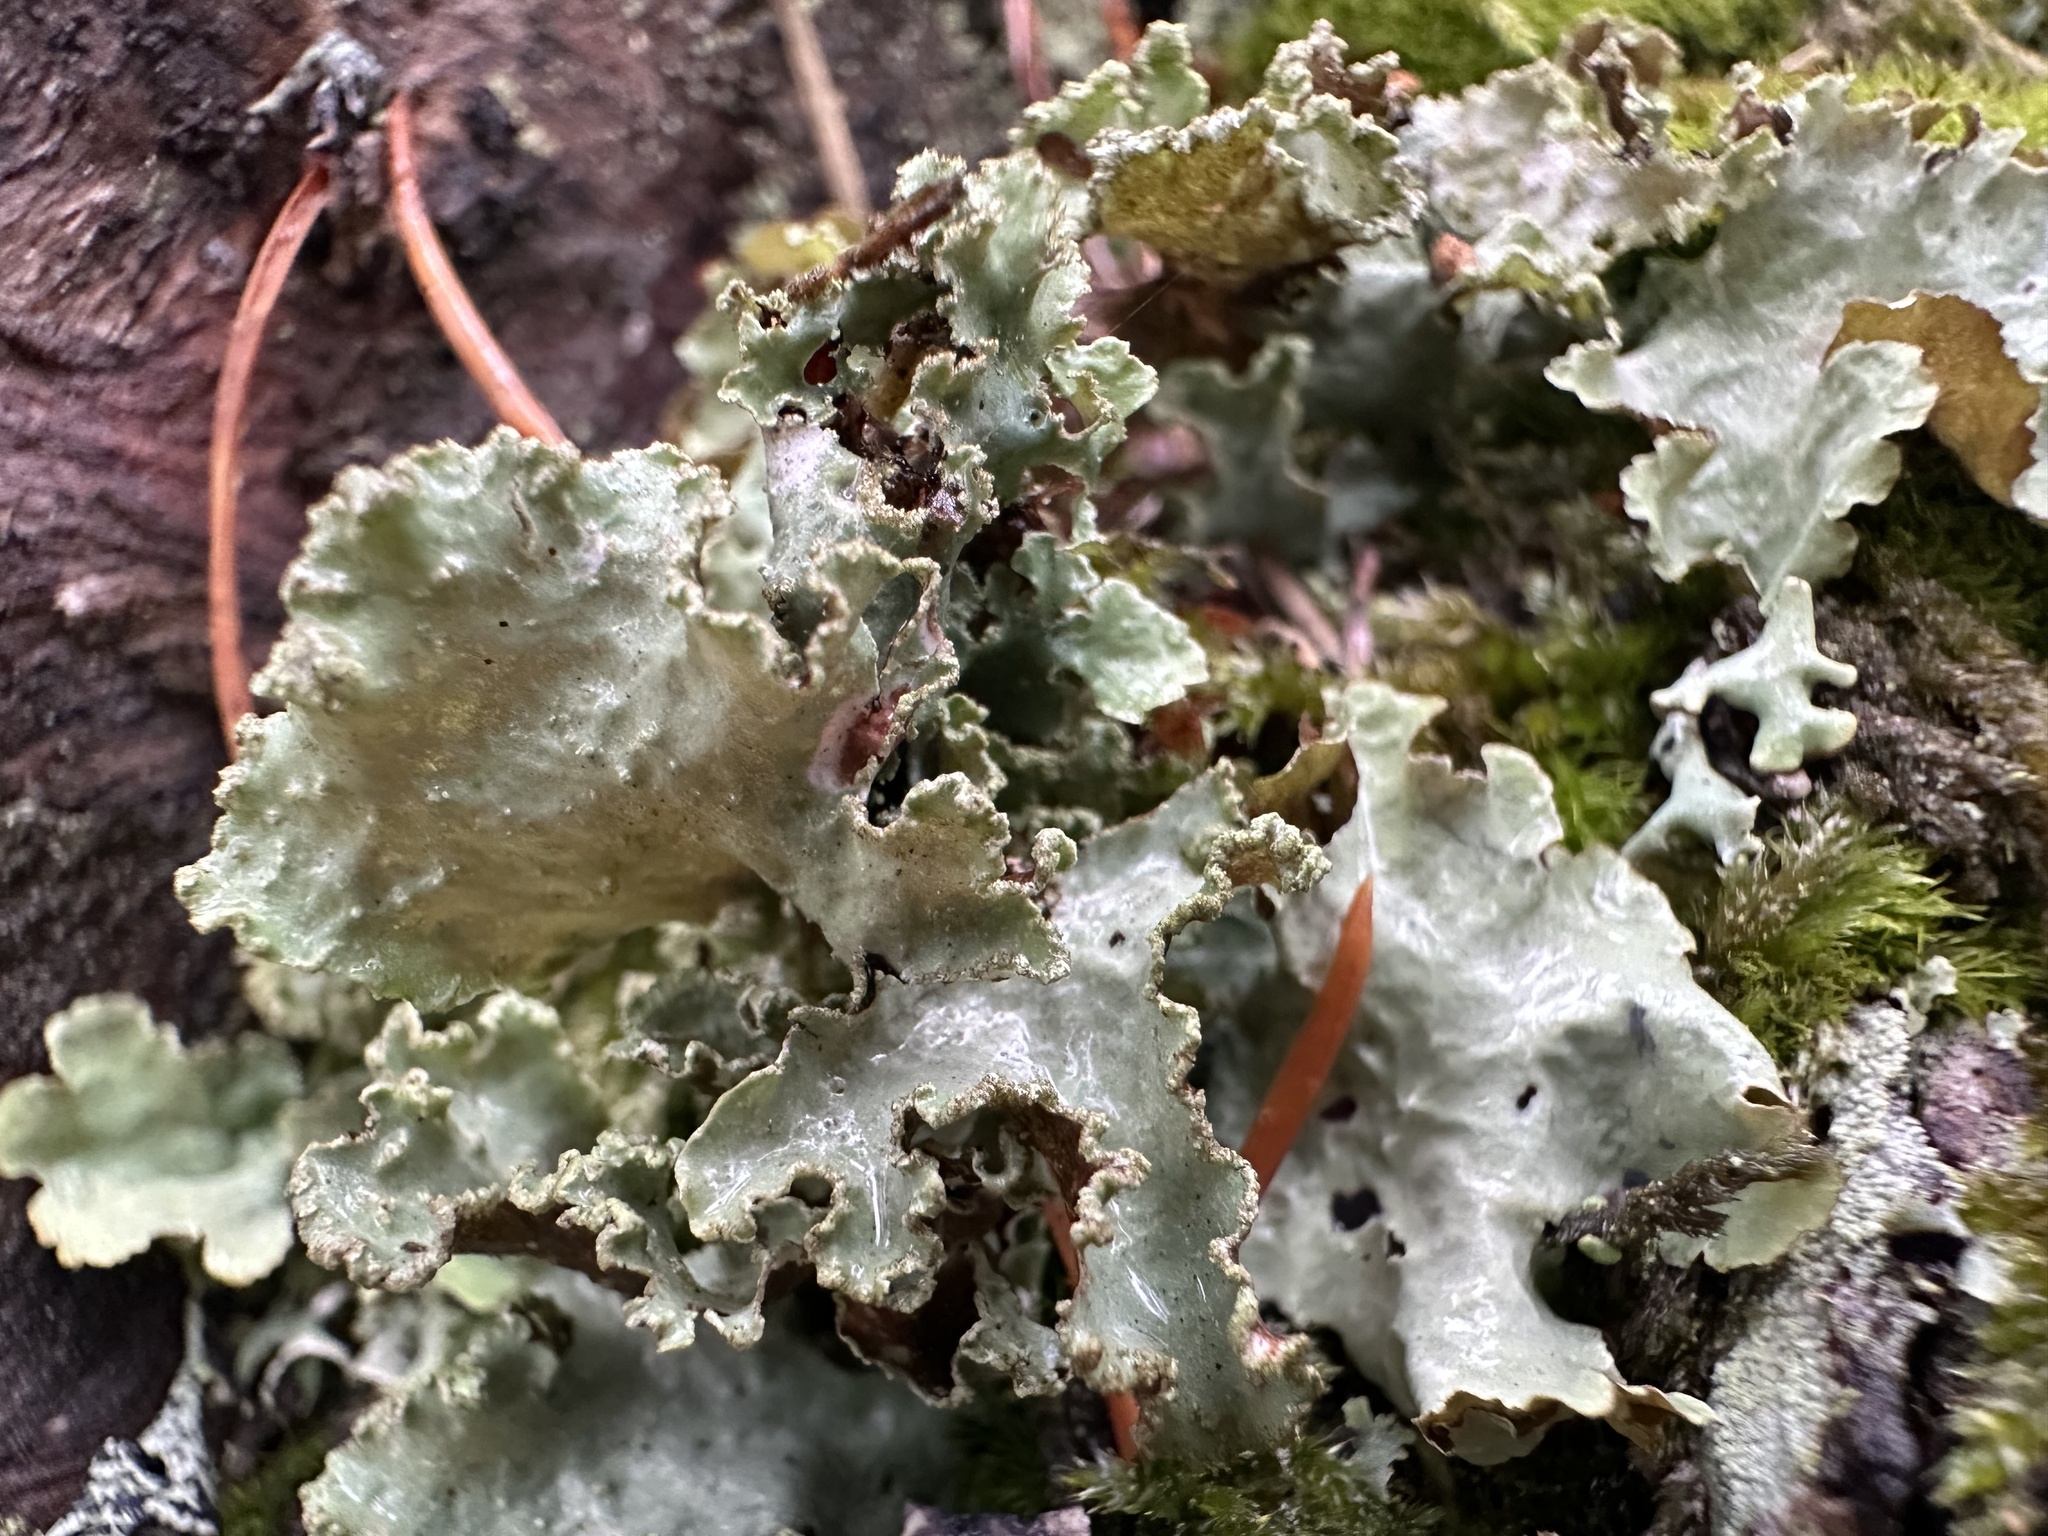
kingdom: Fungi
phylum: Ascomycota
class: Lecanoromycetes
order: Lecanorales
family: Parmeliaceae
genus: Platismatia
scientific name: Platismatia glauca
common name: Varied rag lichen
